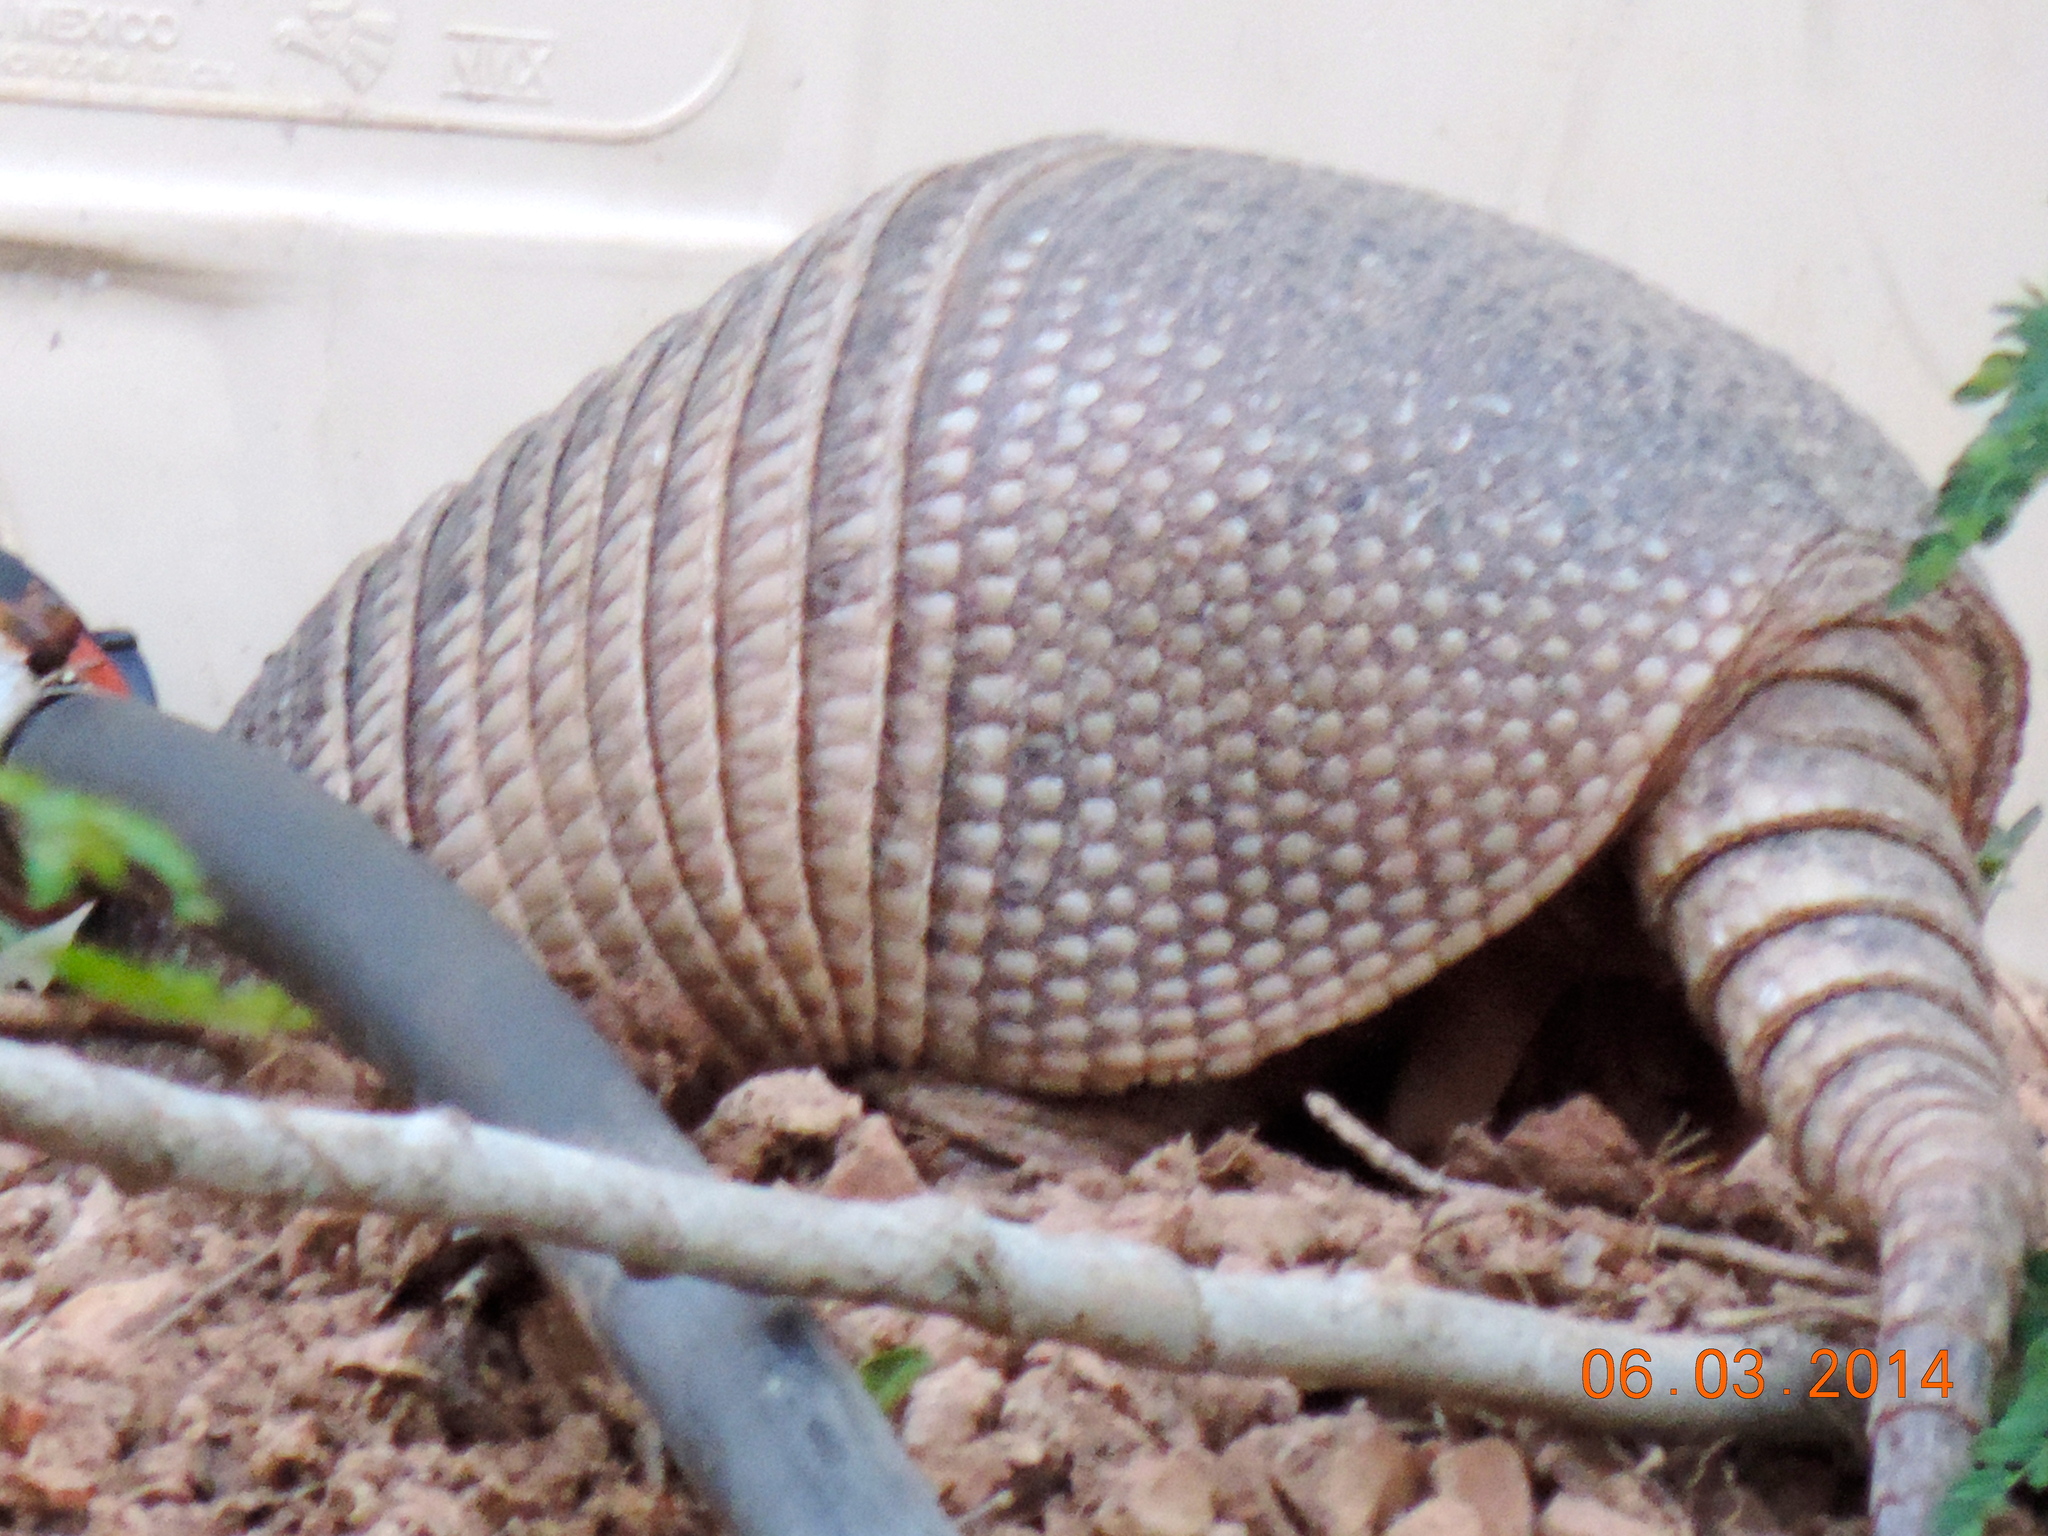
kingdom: Animalia
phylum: Chordata
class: Mammalia
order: Cingulata
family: Dasypodidae
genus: Dasypus
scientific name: Dasypus novemcinctus
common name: Nine-banded armadillo
